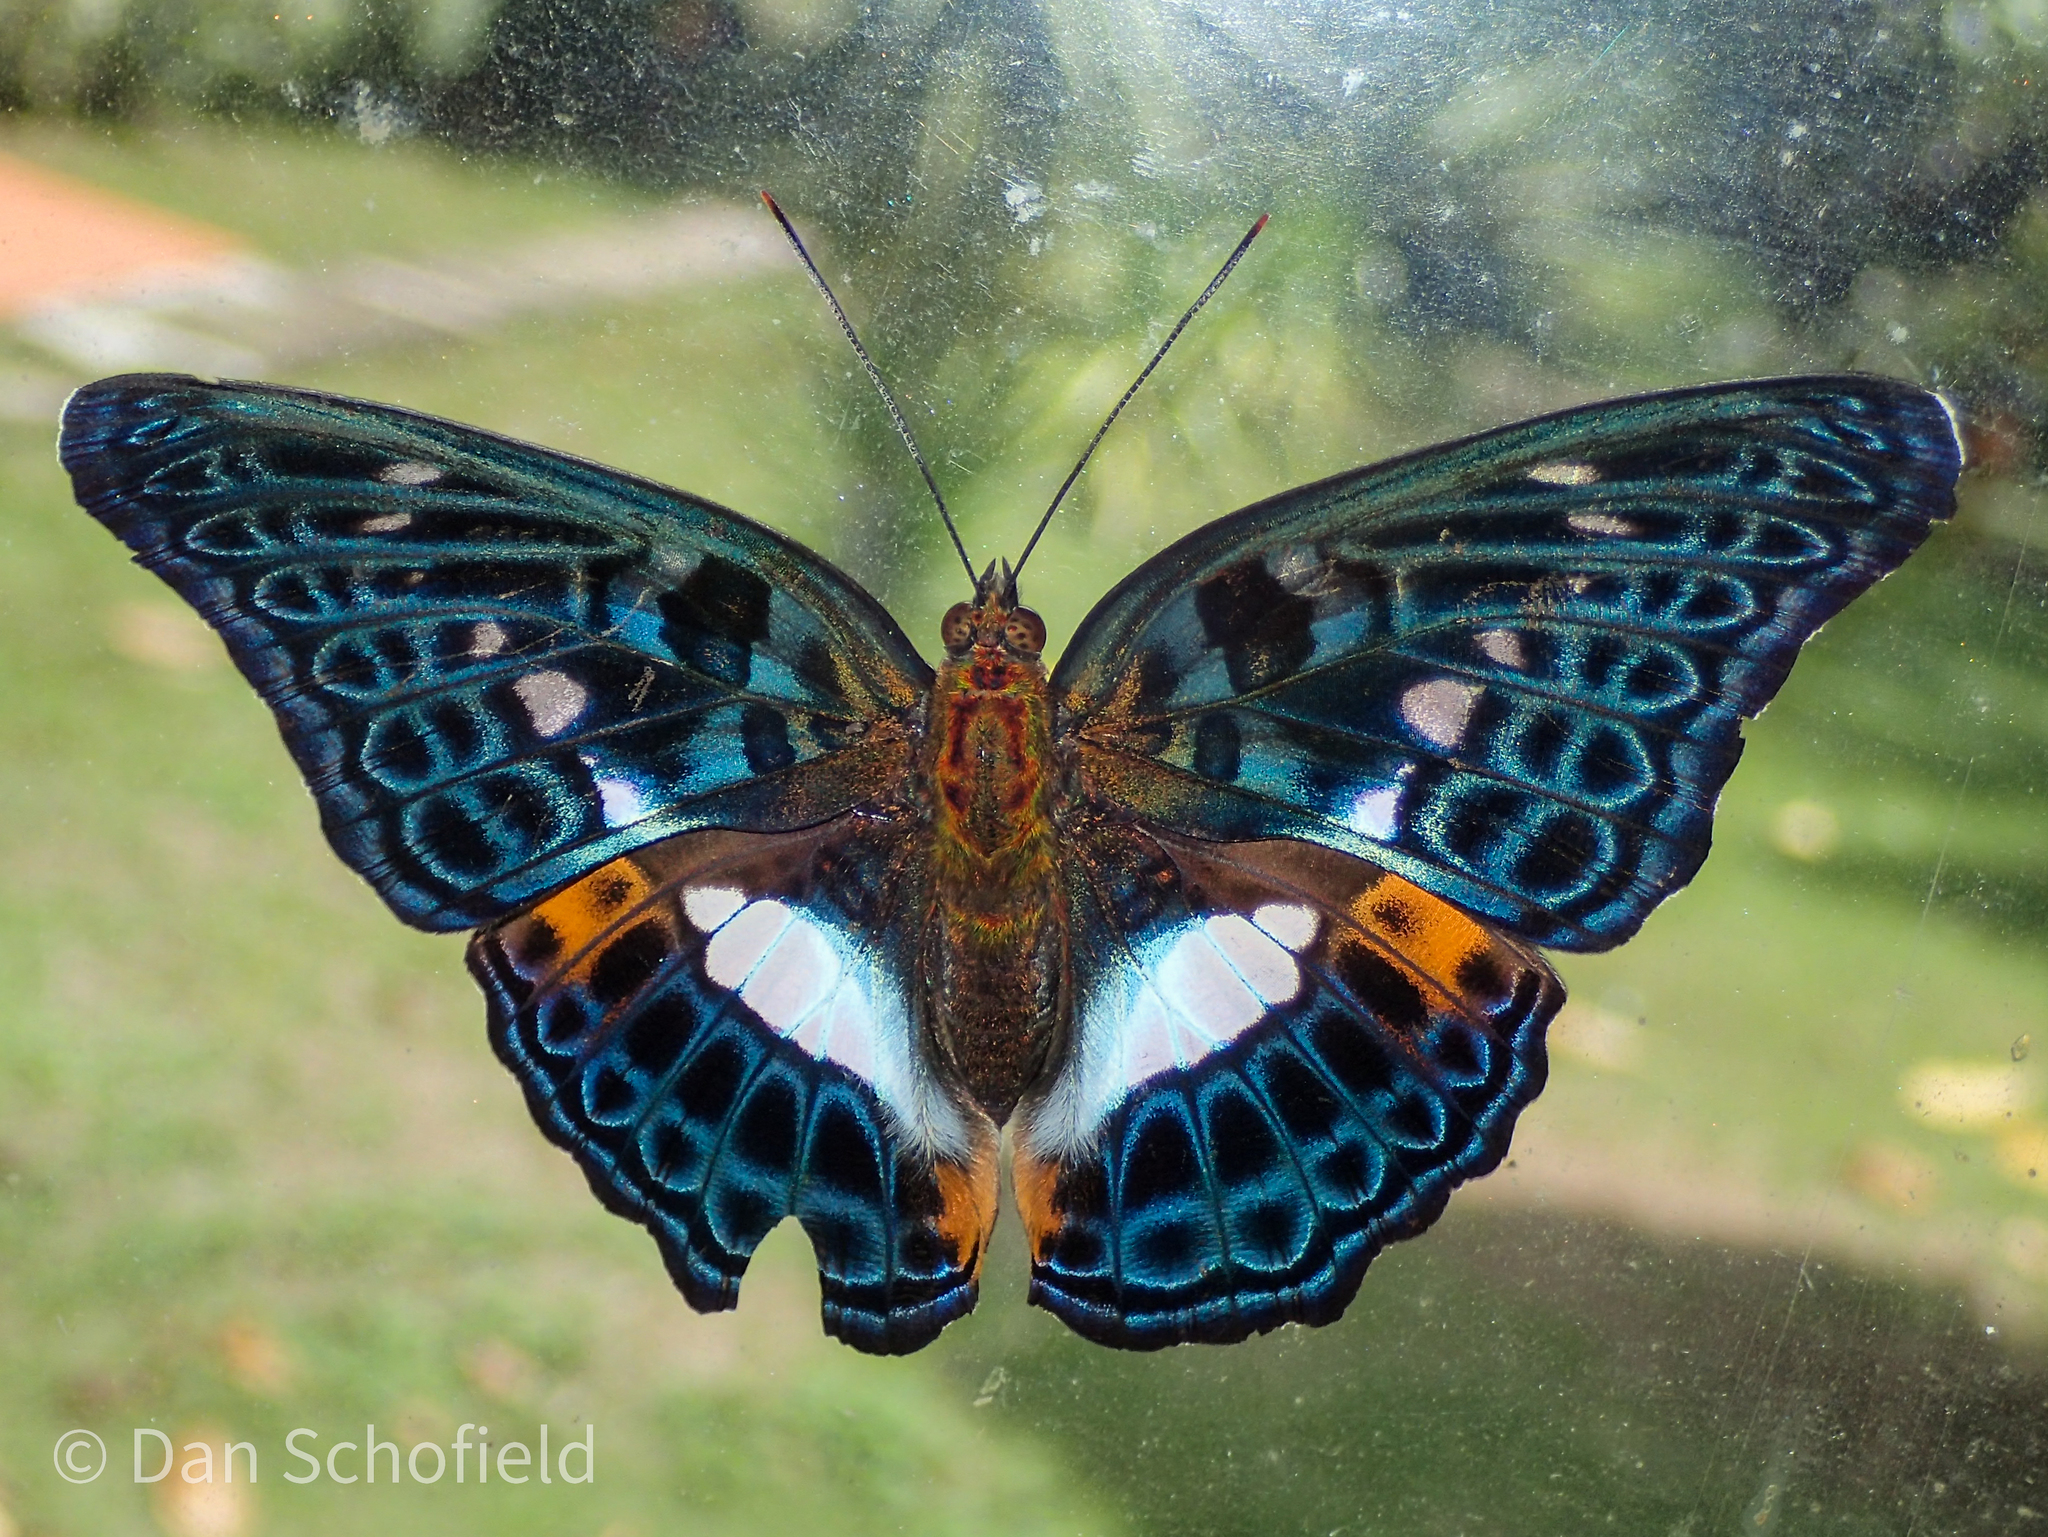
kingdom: Animalia
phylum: Arthropoda
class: Insecta
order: Lepidoptera
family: Nymphalidae
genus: Limenitis
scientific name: Limenitis
